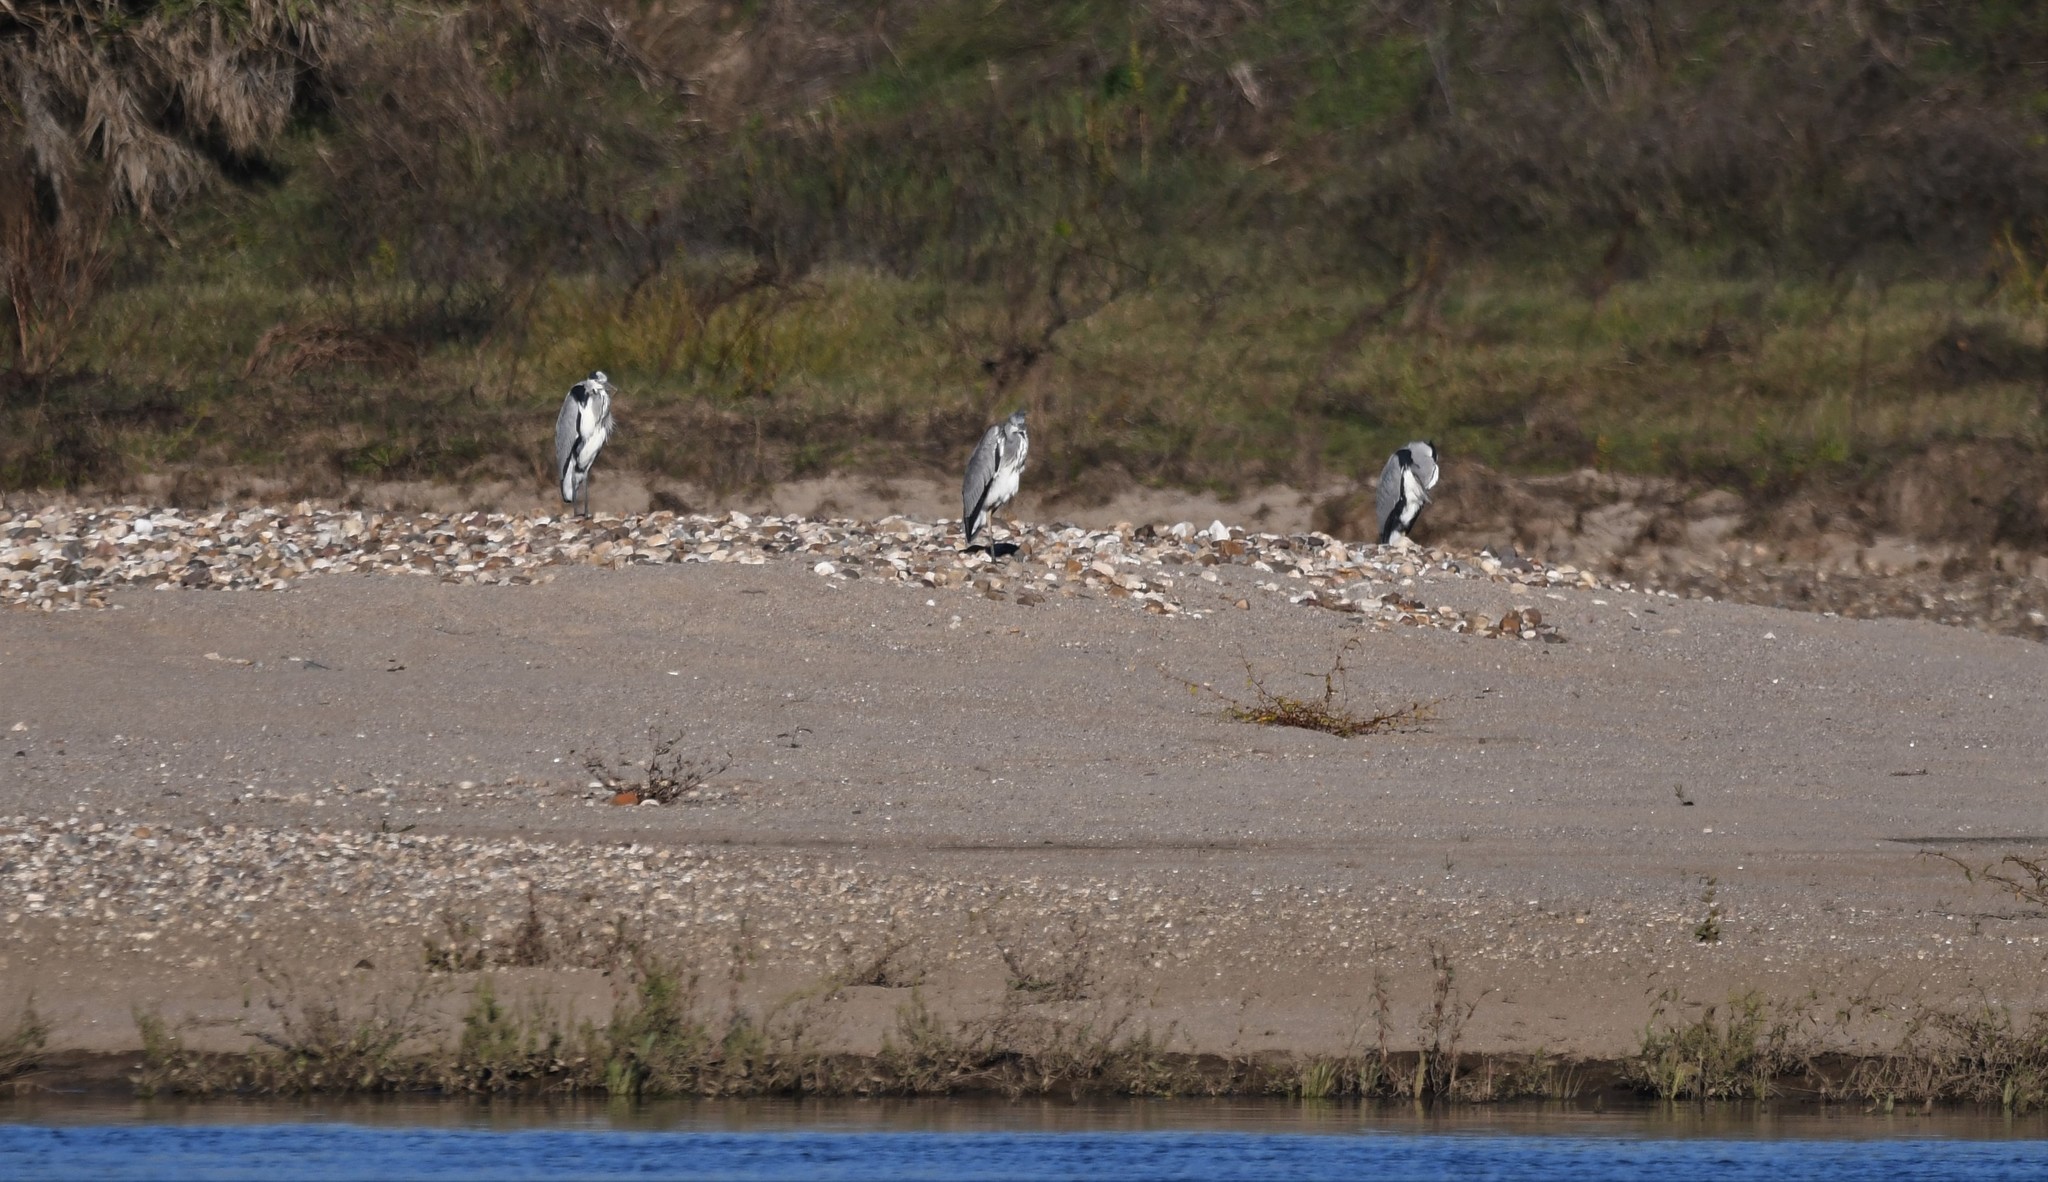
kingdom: Animalia
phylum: Chordata
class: Aves
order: Pelecaniformes
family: Ardeidae
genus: Ardea
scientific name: Ardea cinerea
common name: Grey heron
